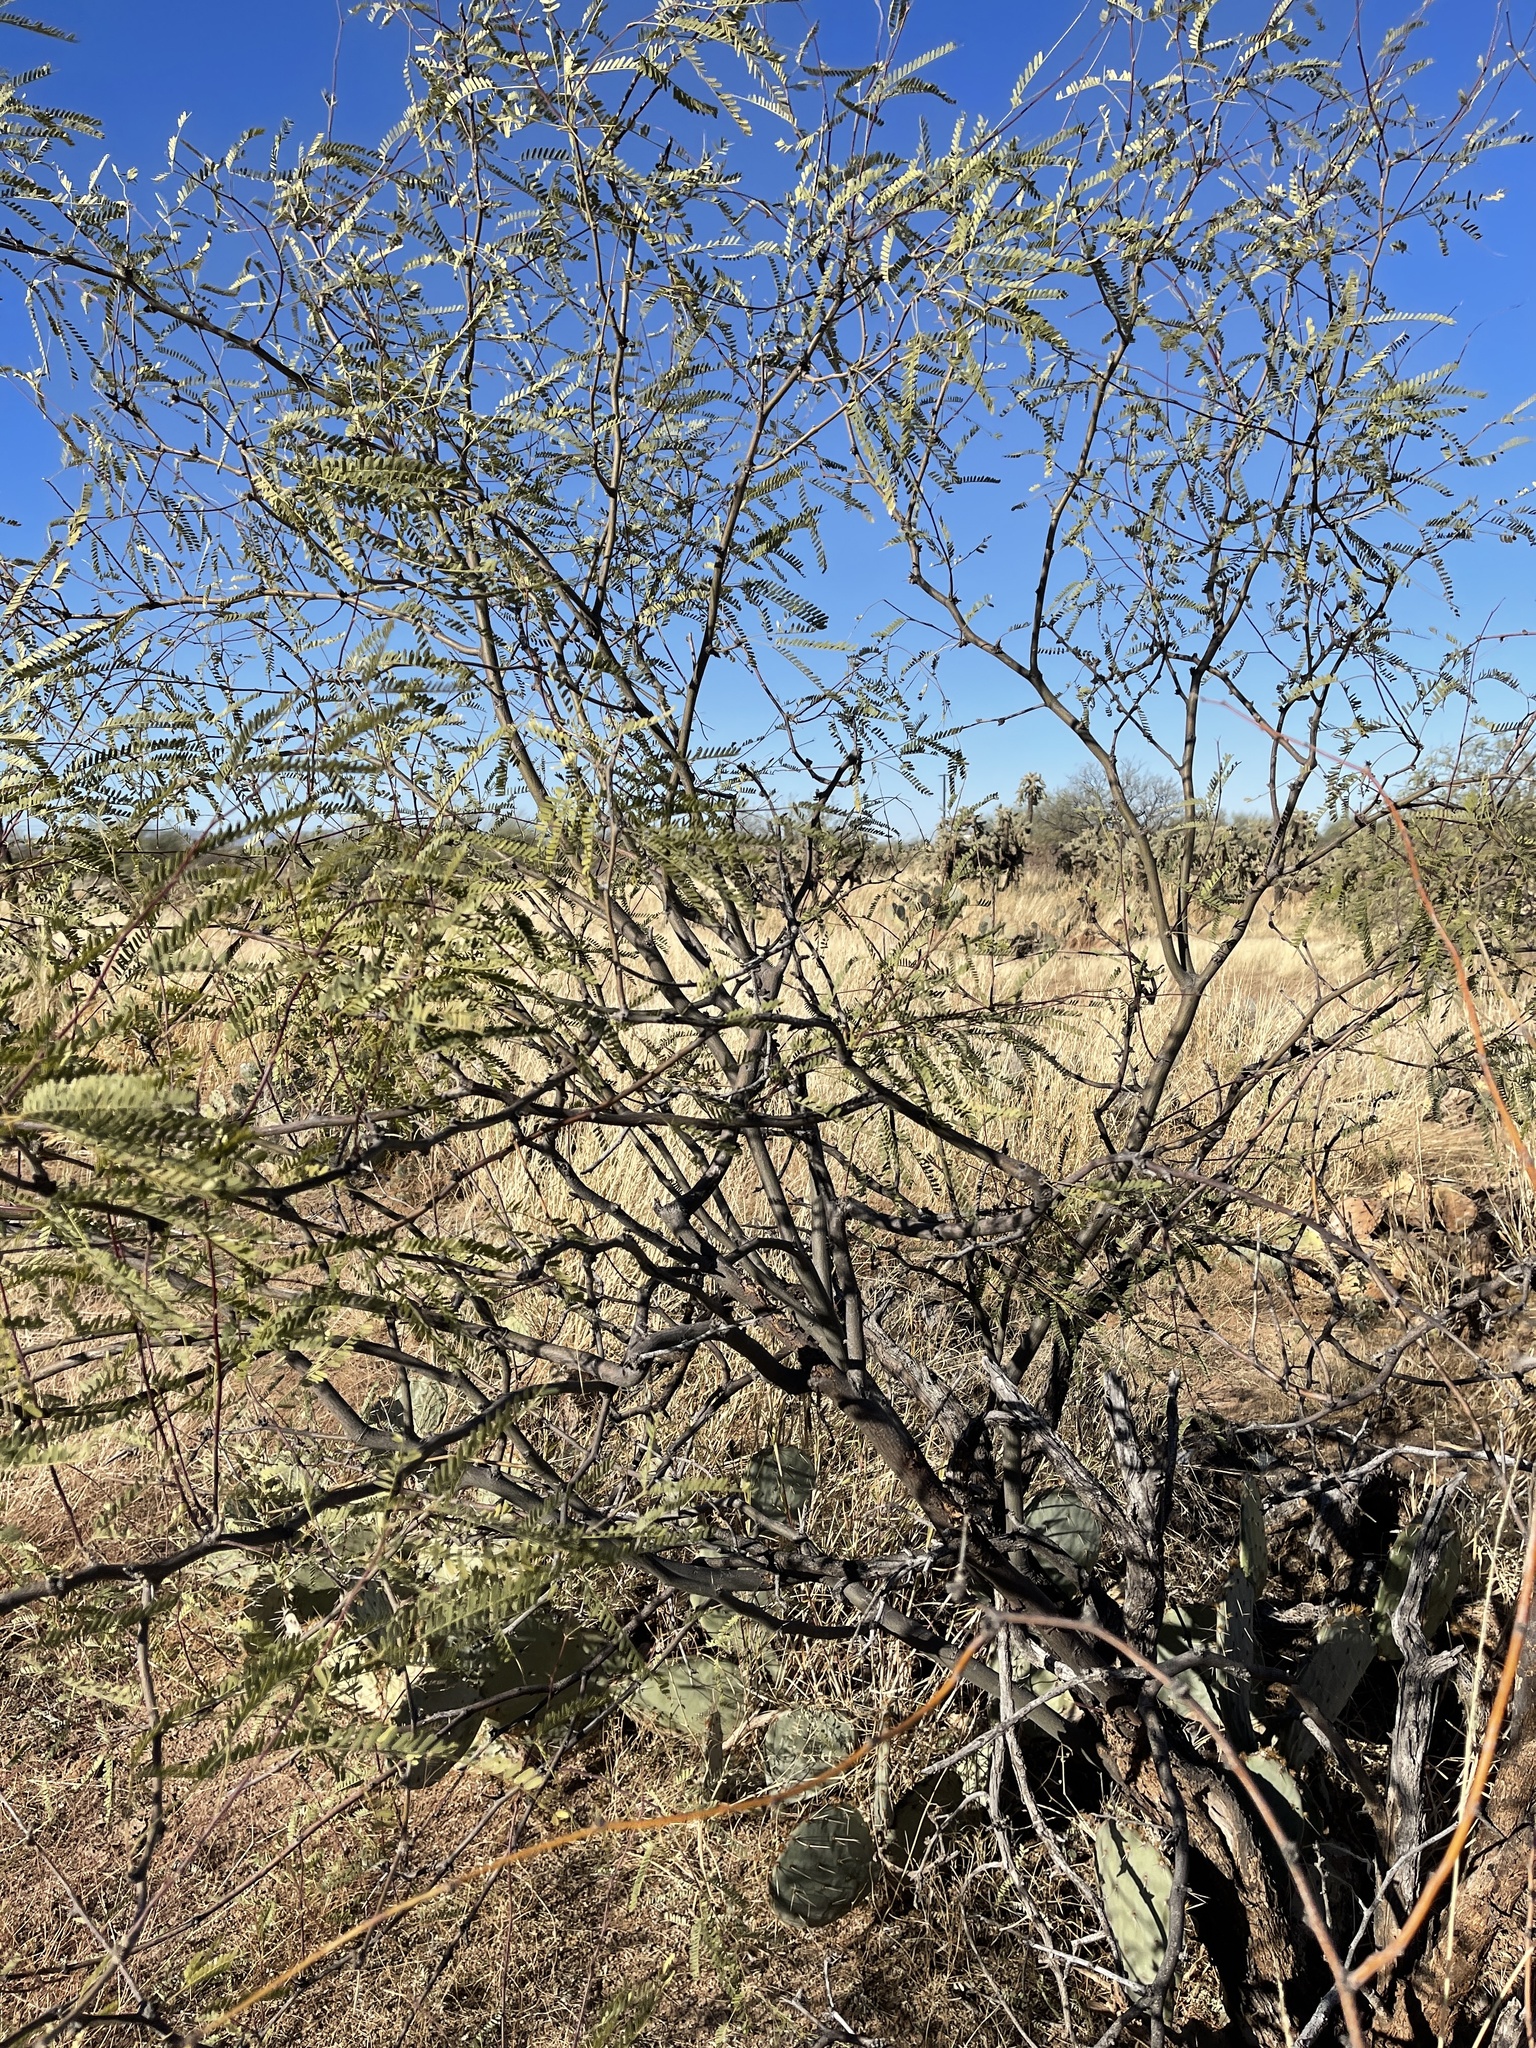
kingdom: Plantae
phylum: Tracheophyta
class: Magnoliopsida
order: Fabales
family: Fabaceae
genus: Prosopis
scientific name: Prosopis velutina
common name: Velvet mesquite
